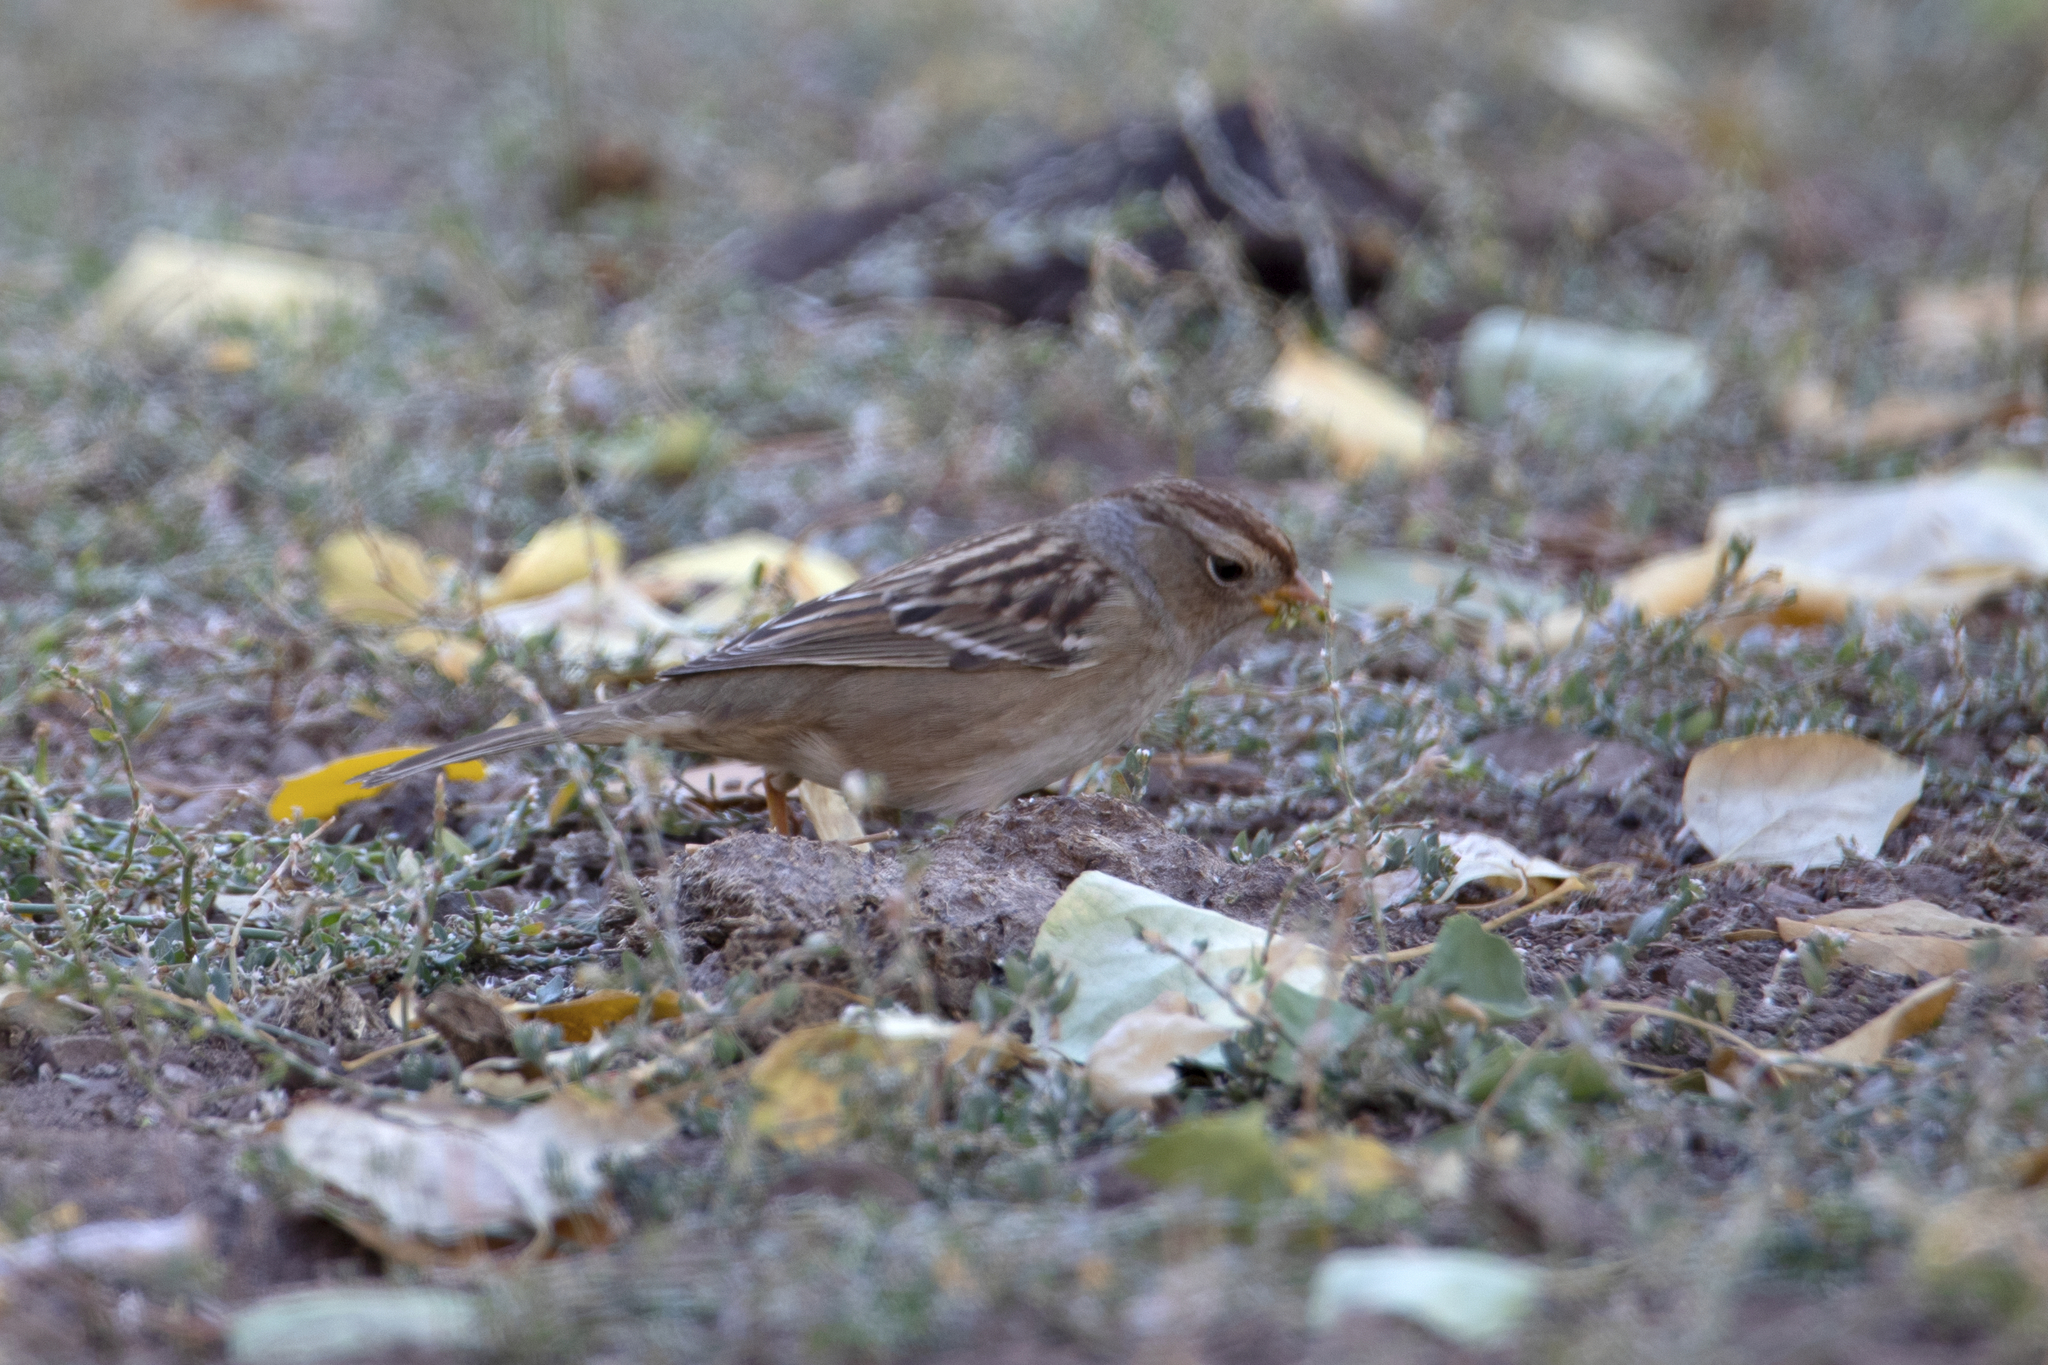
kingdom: Animalia
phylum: Chordata
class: Aves
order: Passeriformes
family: Passerellidae
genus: Zonotrichia
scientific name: Zonotrichia leucophrys
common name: White-crowned sparrow
